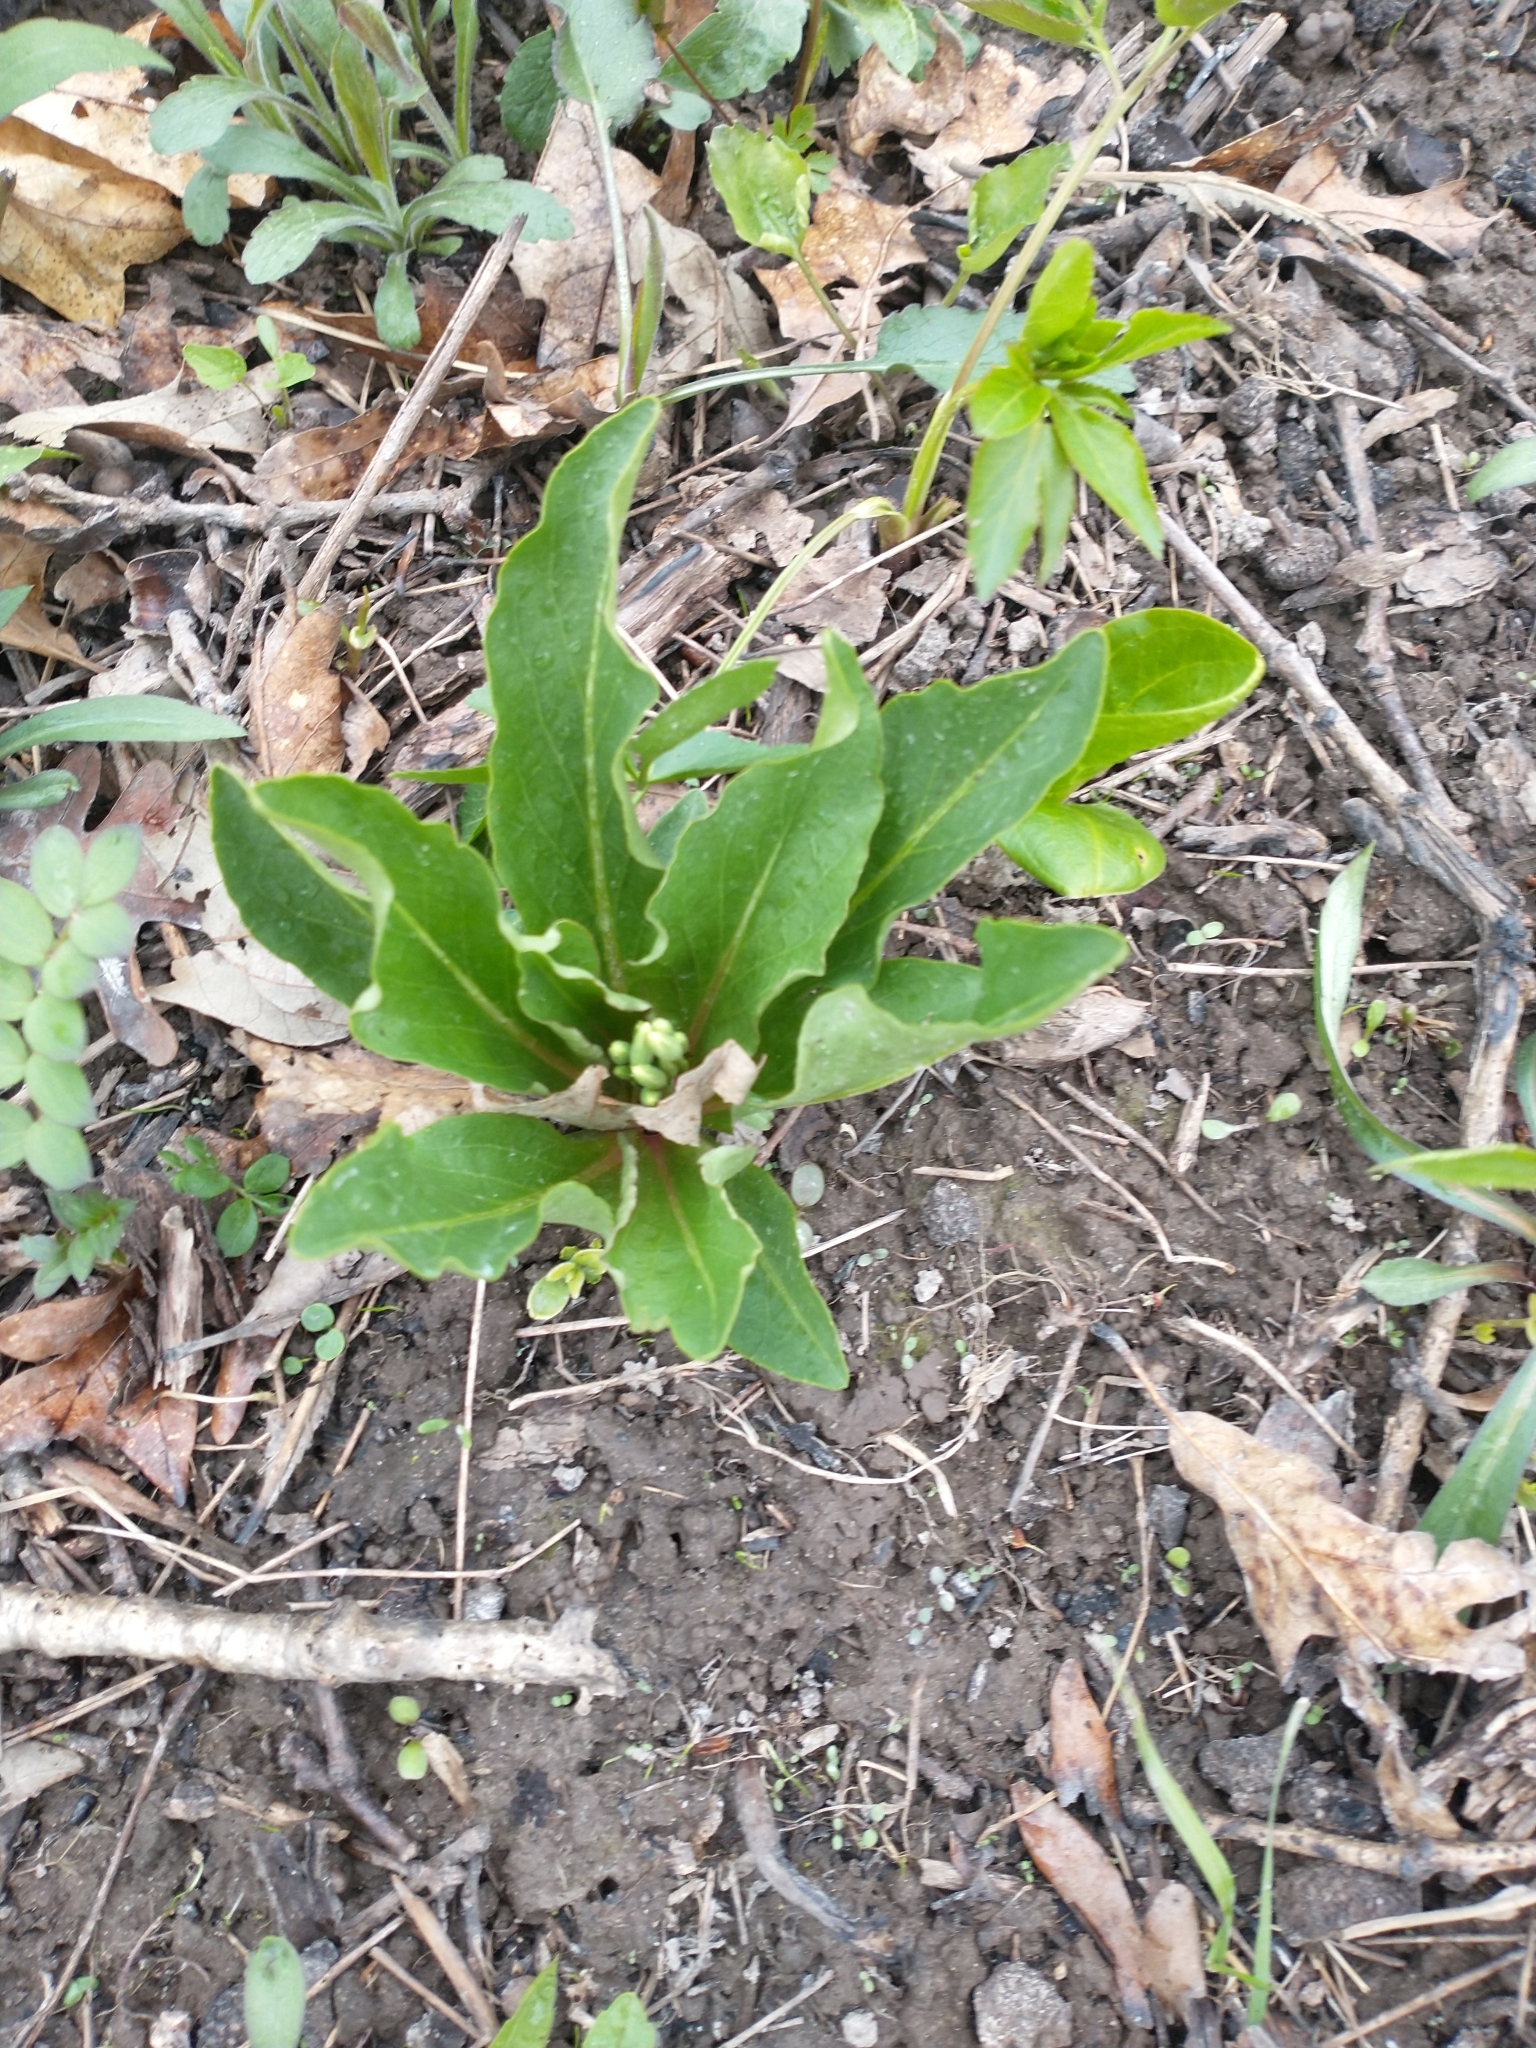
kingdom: Plantae
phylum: Tracheophyta
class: Magnoliopsida
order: Ericales
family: Primulaceae
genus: Dodecatheon
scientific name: Dodecatheon meadia
